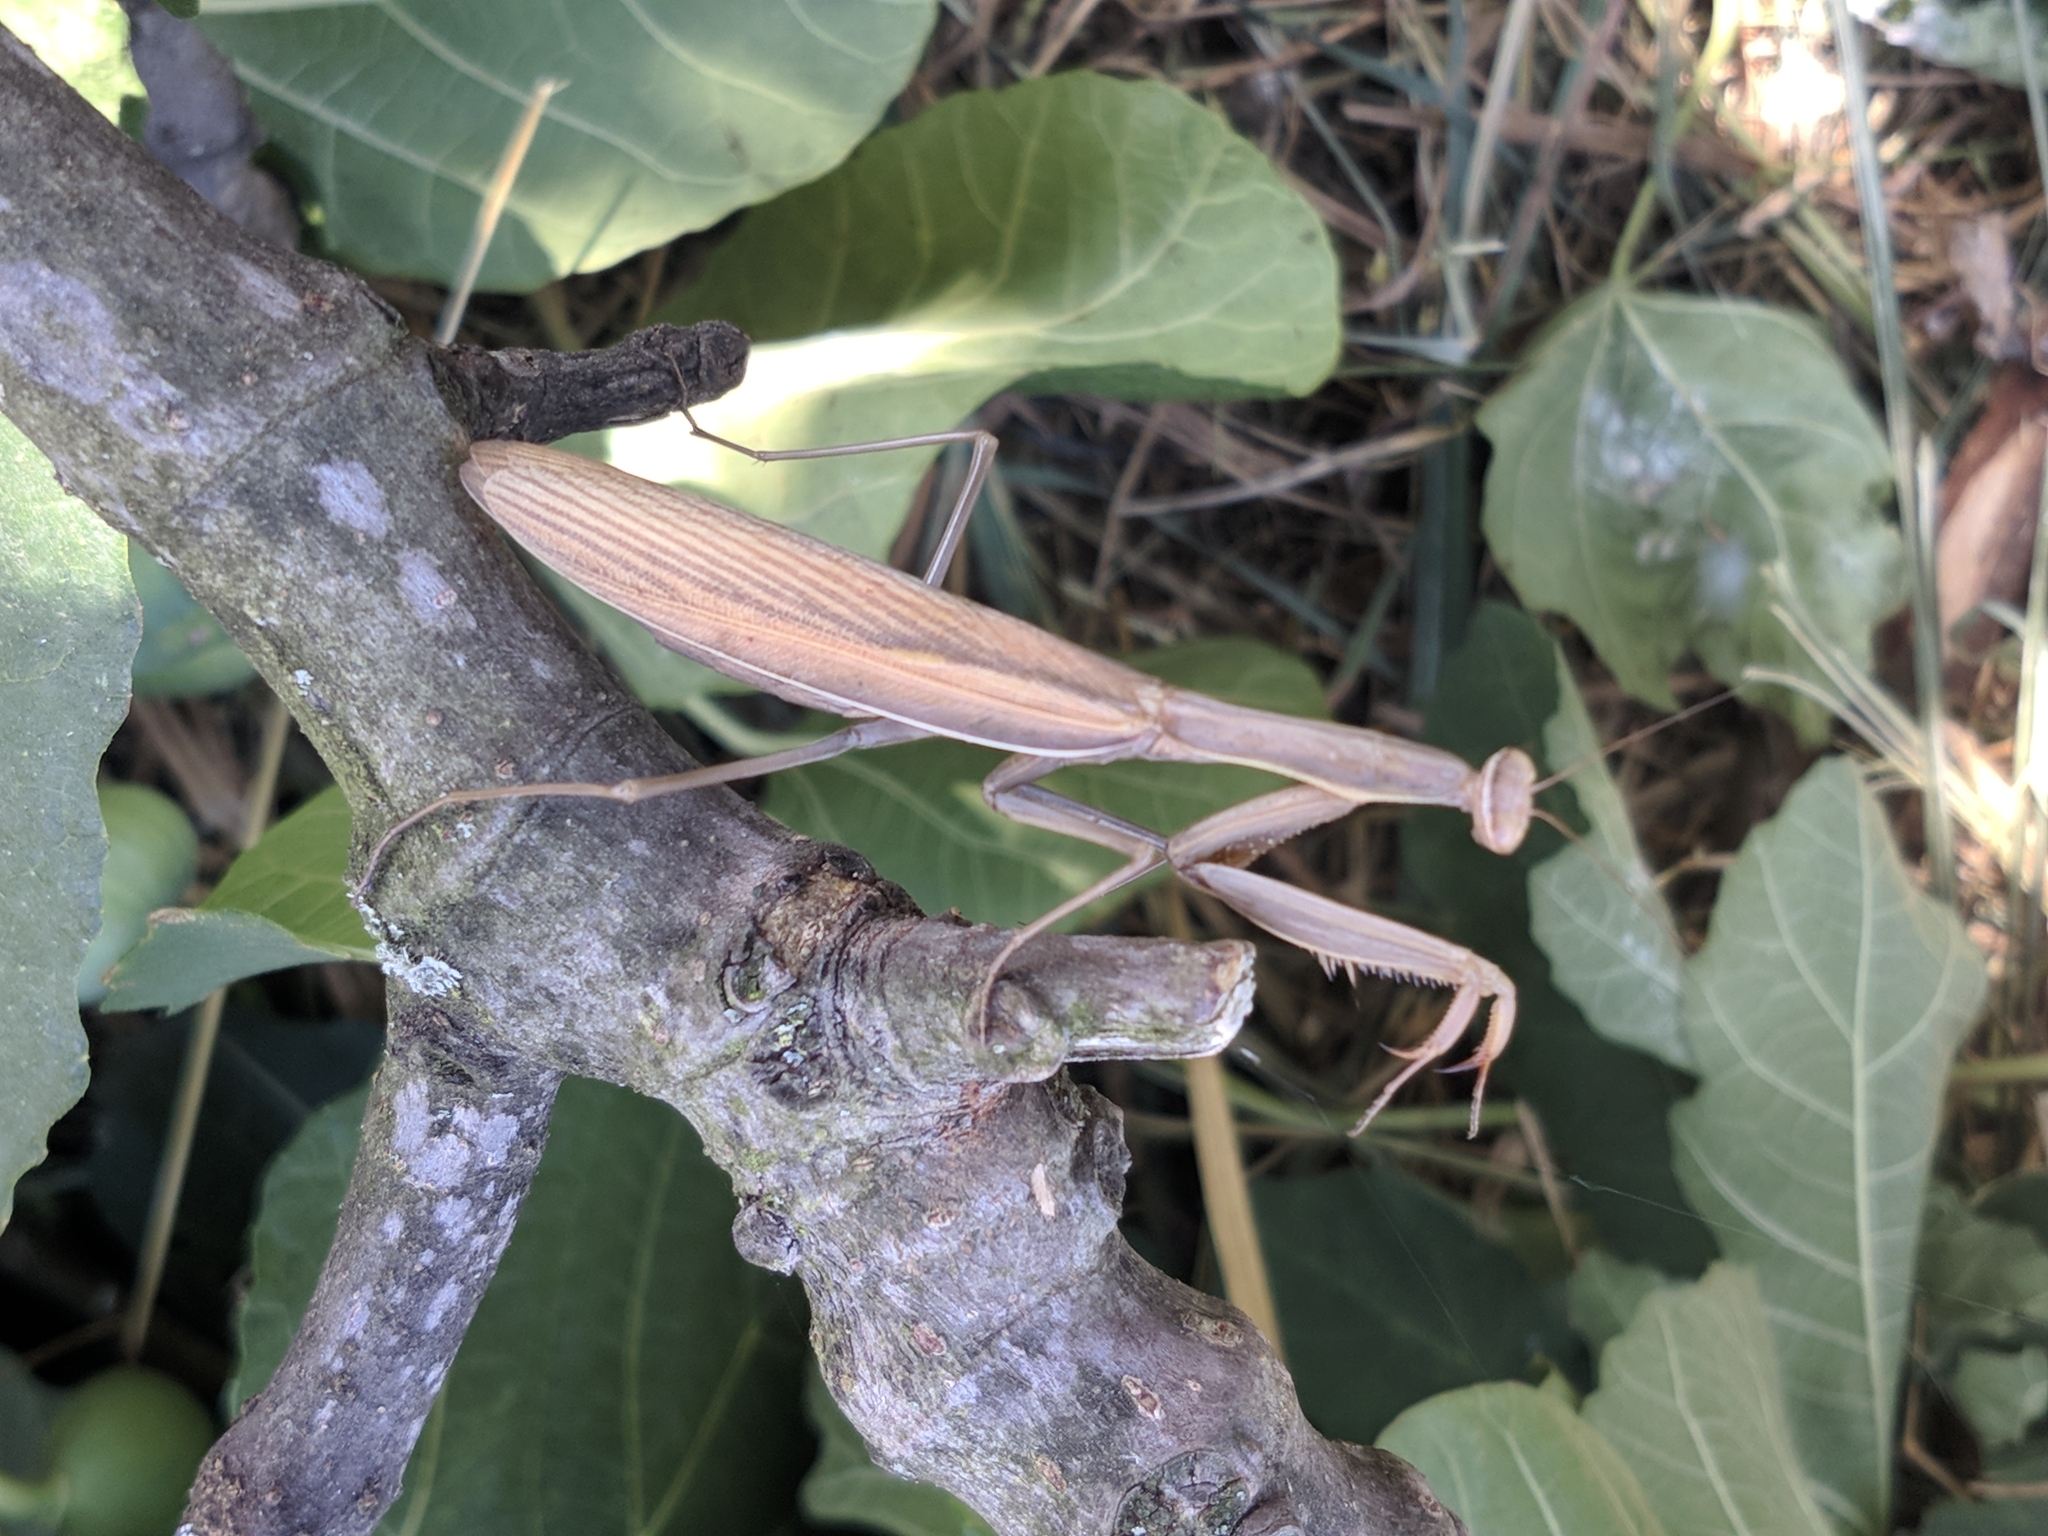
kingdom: Animalia
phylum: Arthropoda
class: Insecta
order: Mantodea
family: Mantidae
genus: Mantis
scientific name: Mantis religiosa
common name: Praying mantis
